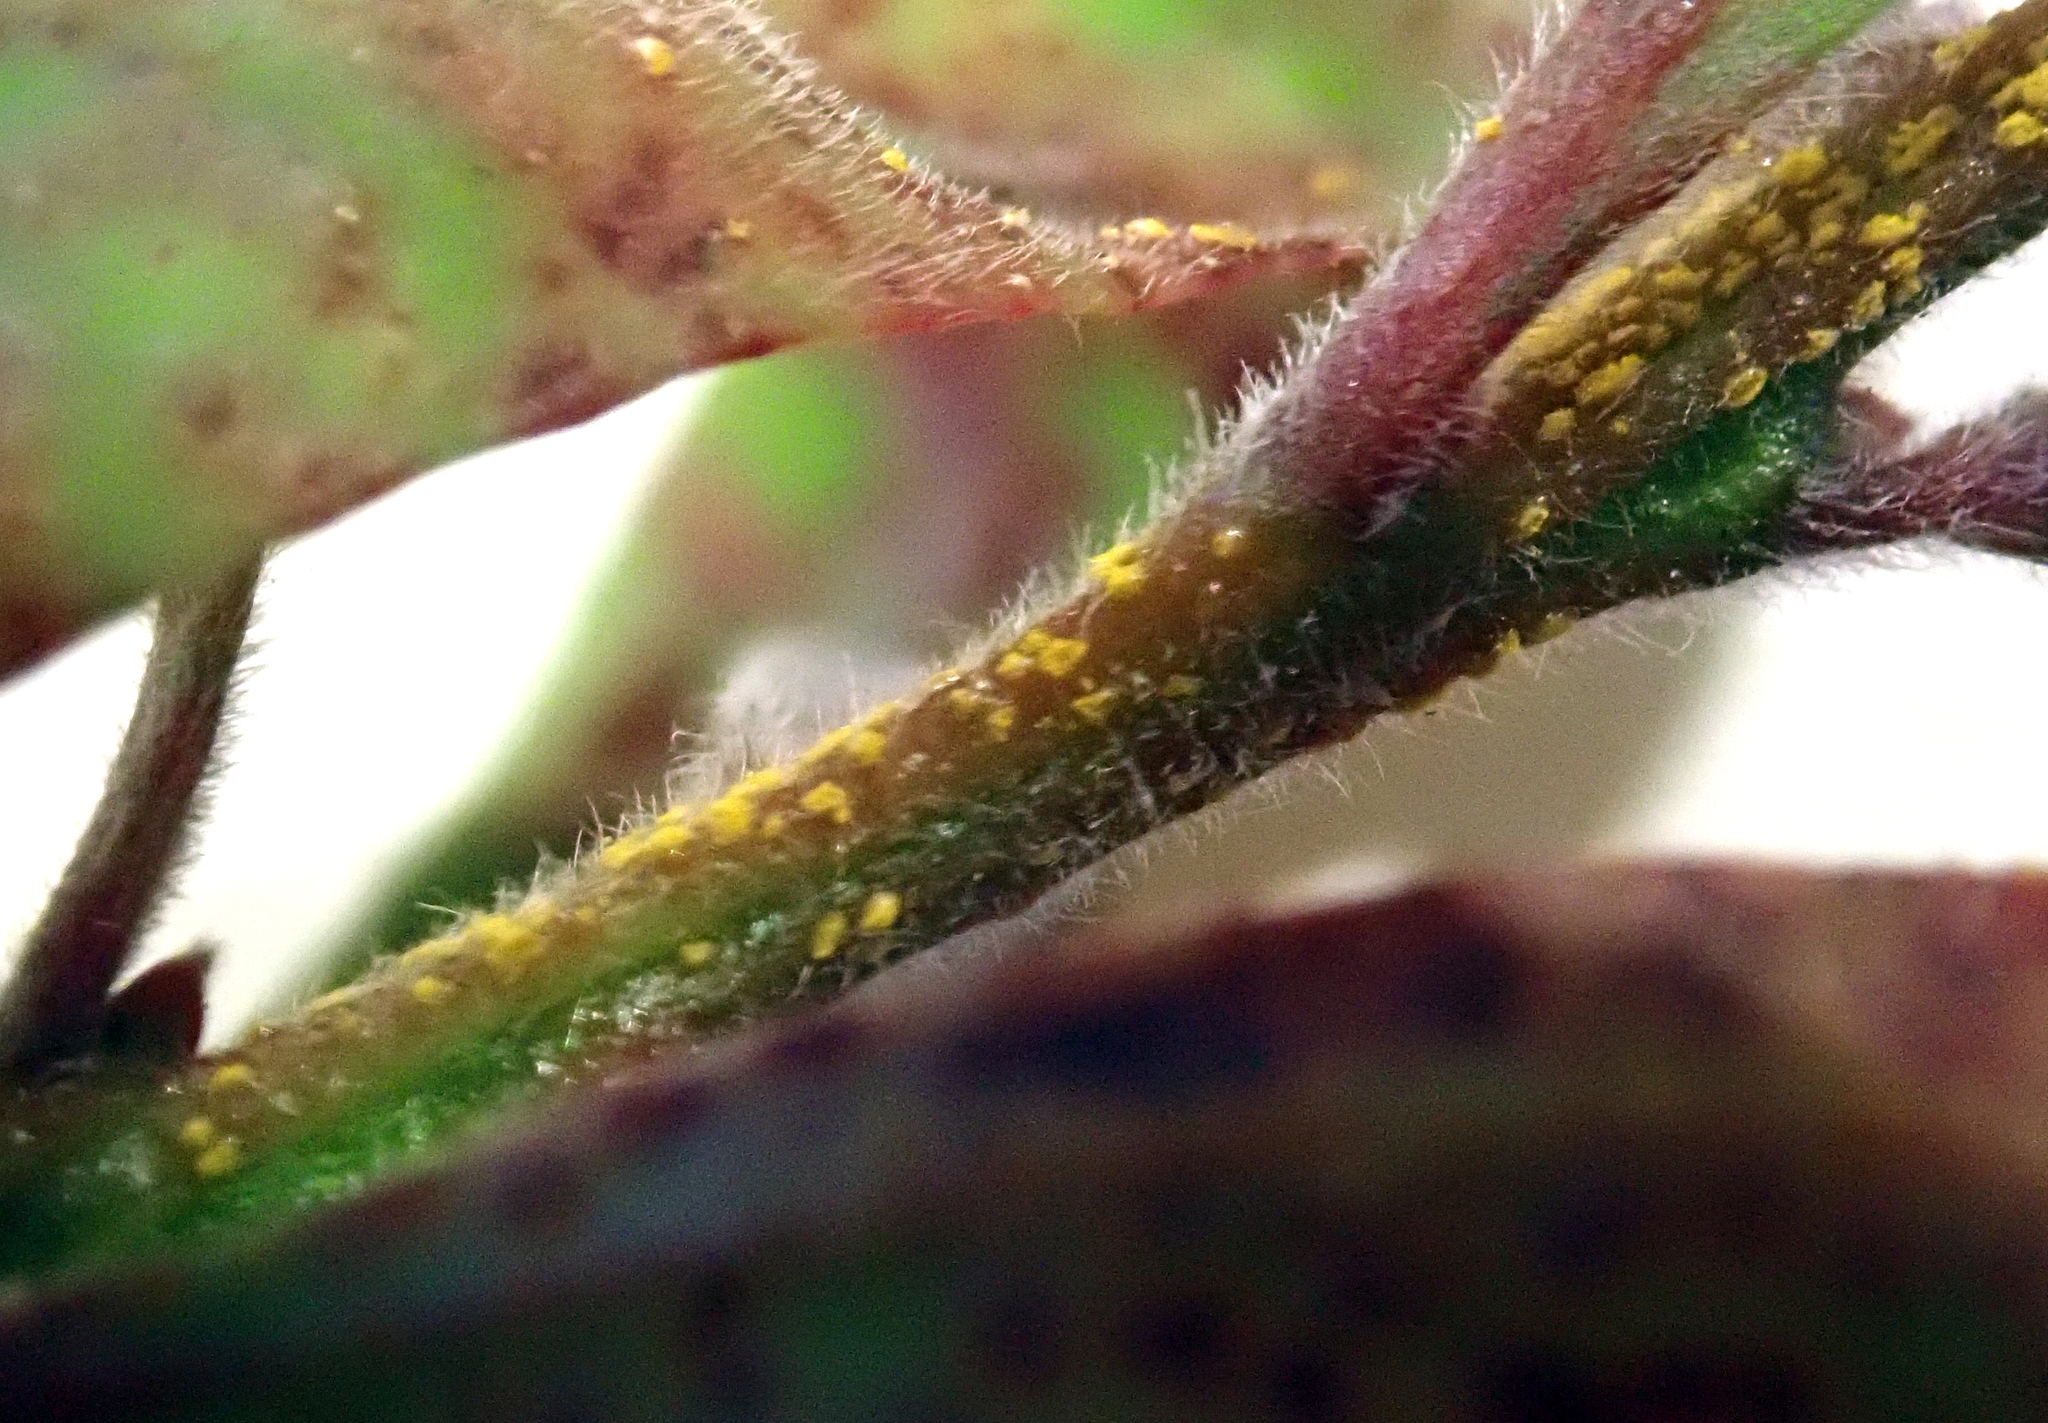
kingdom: Fungi
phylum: Basidiomycota
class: Pucciniomycetes
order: Pucciniales
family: Sphaerophragmiaceae
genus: Austropuccinia
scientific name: Austropuccinia psidii
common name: Myrtle rust
